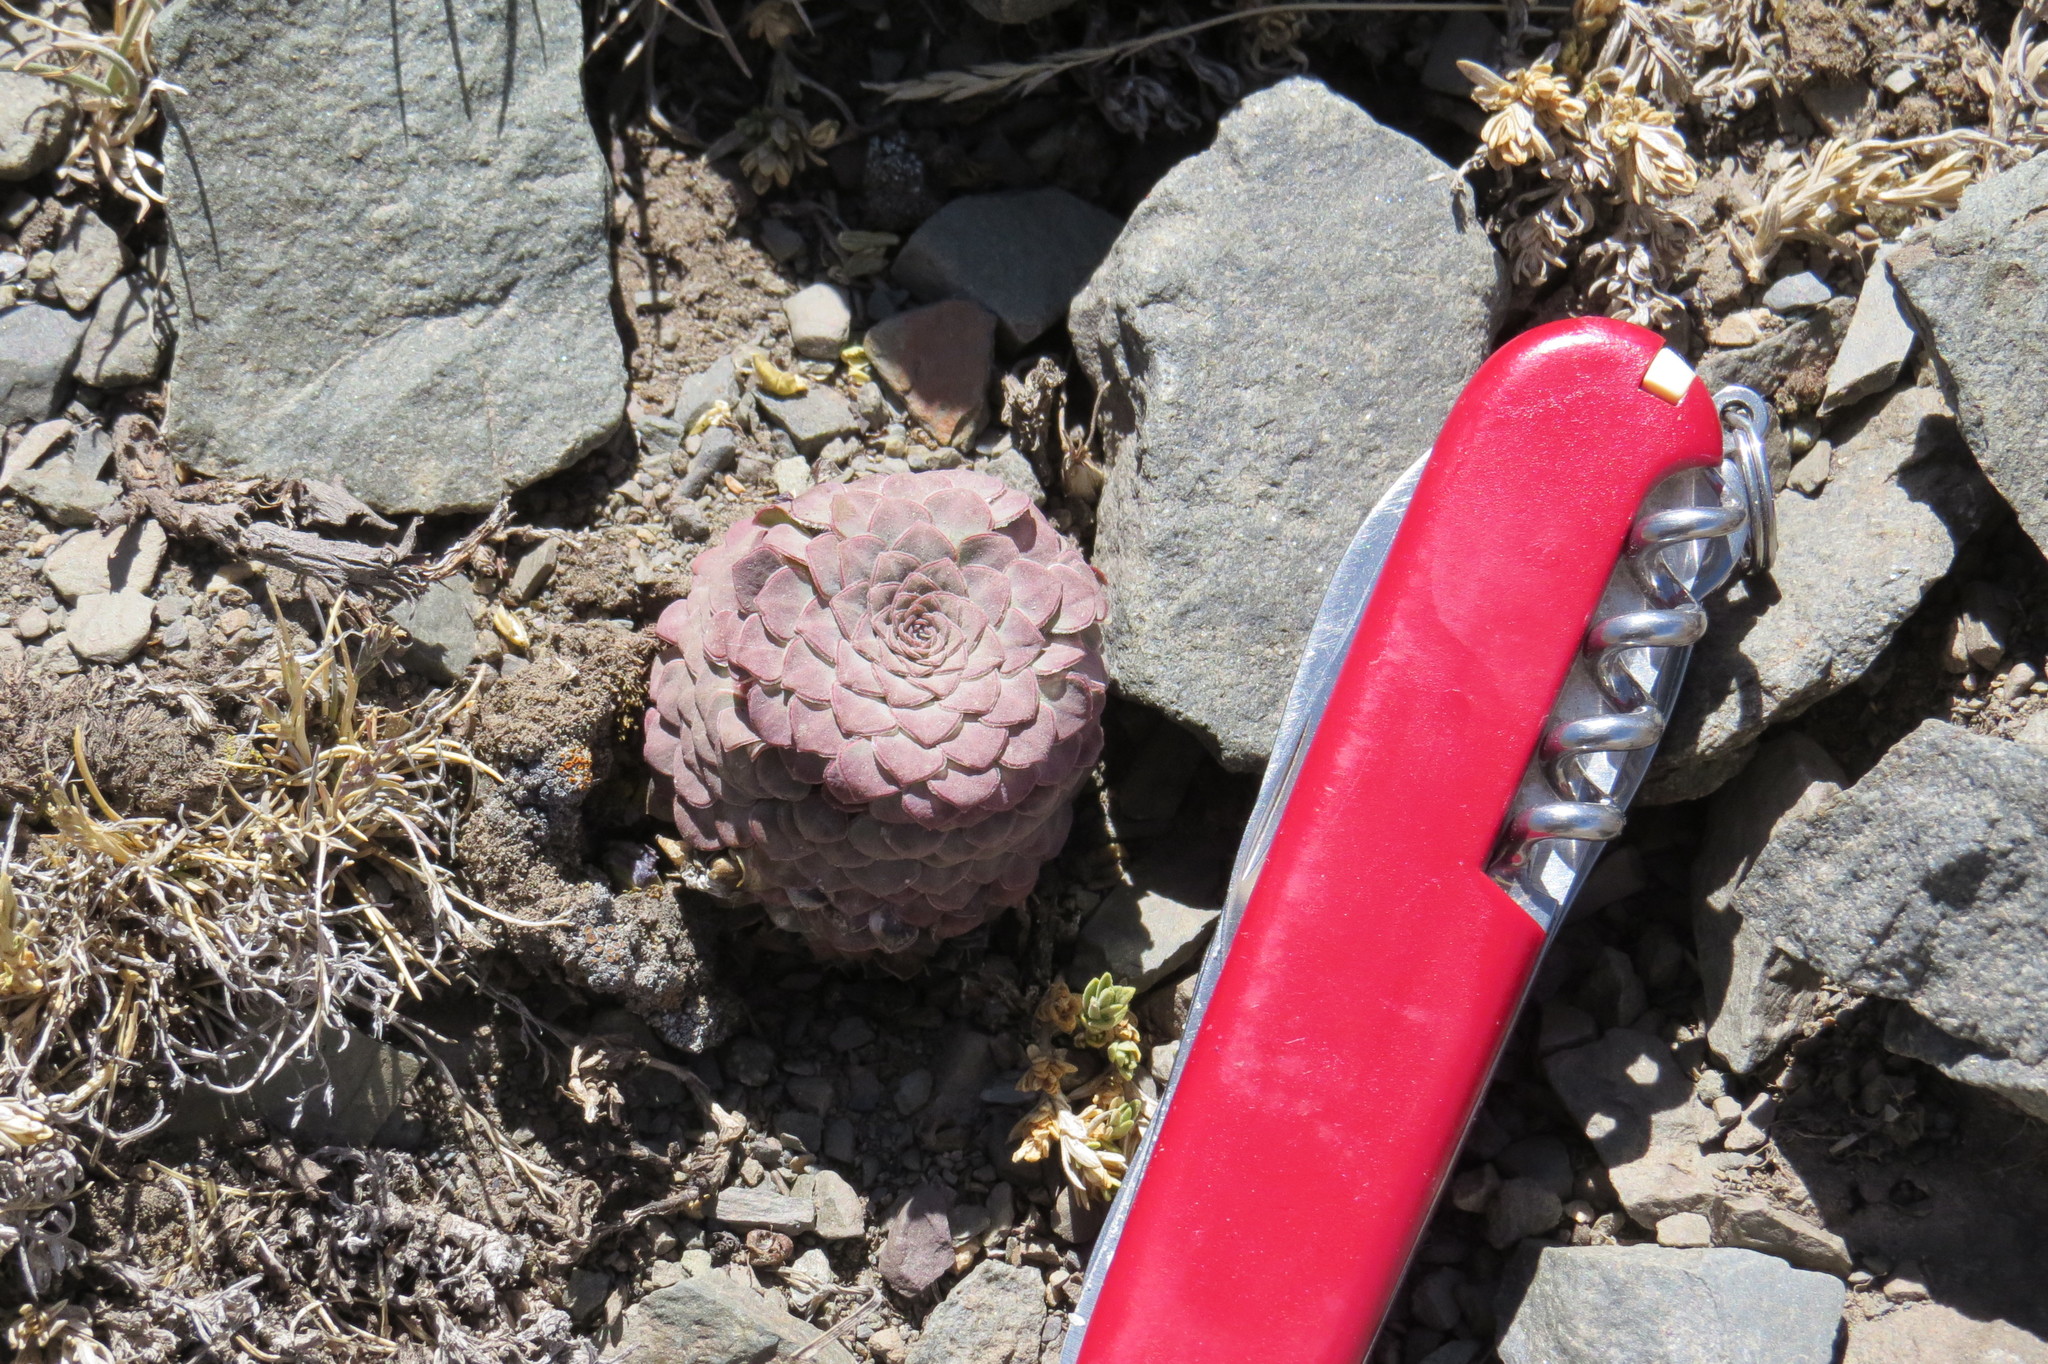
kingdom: Plantae
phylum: Tracheophyta
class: Magnoliopsida
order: Malpighiales
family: Violaceae
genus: Viola
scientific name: Viola atropurpurea
